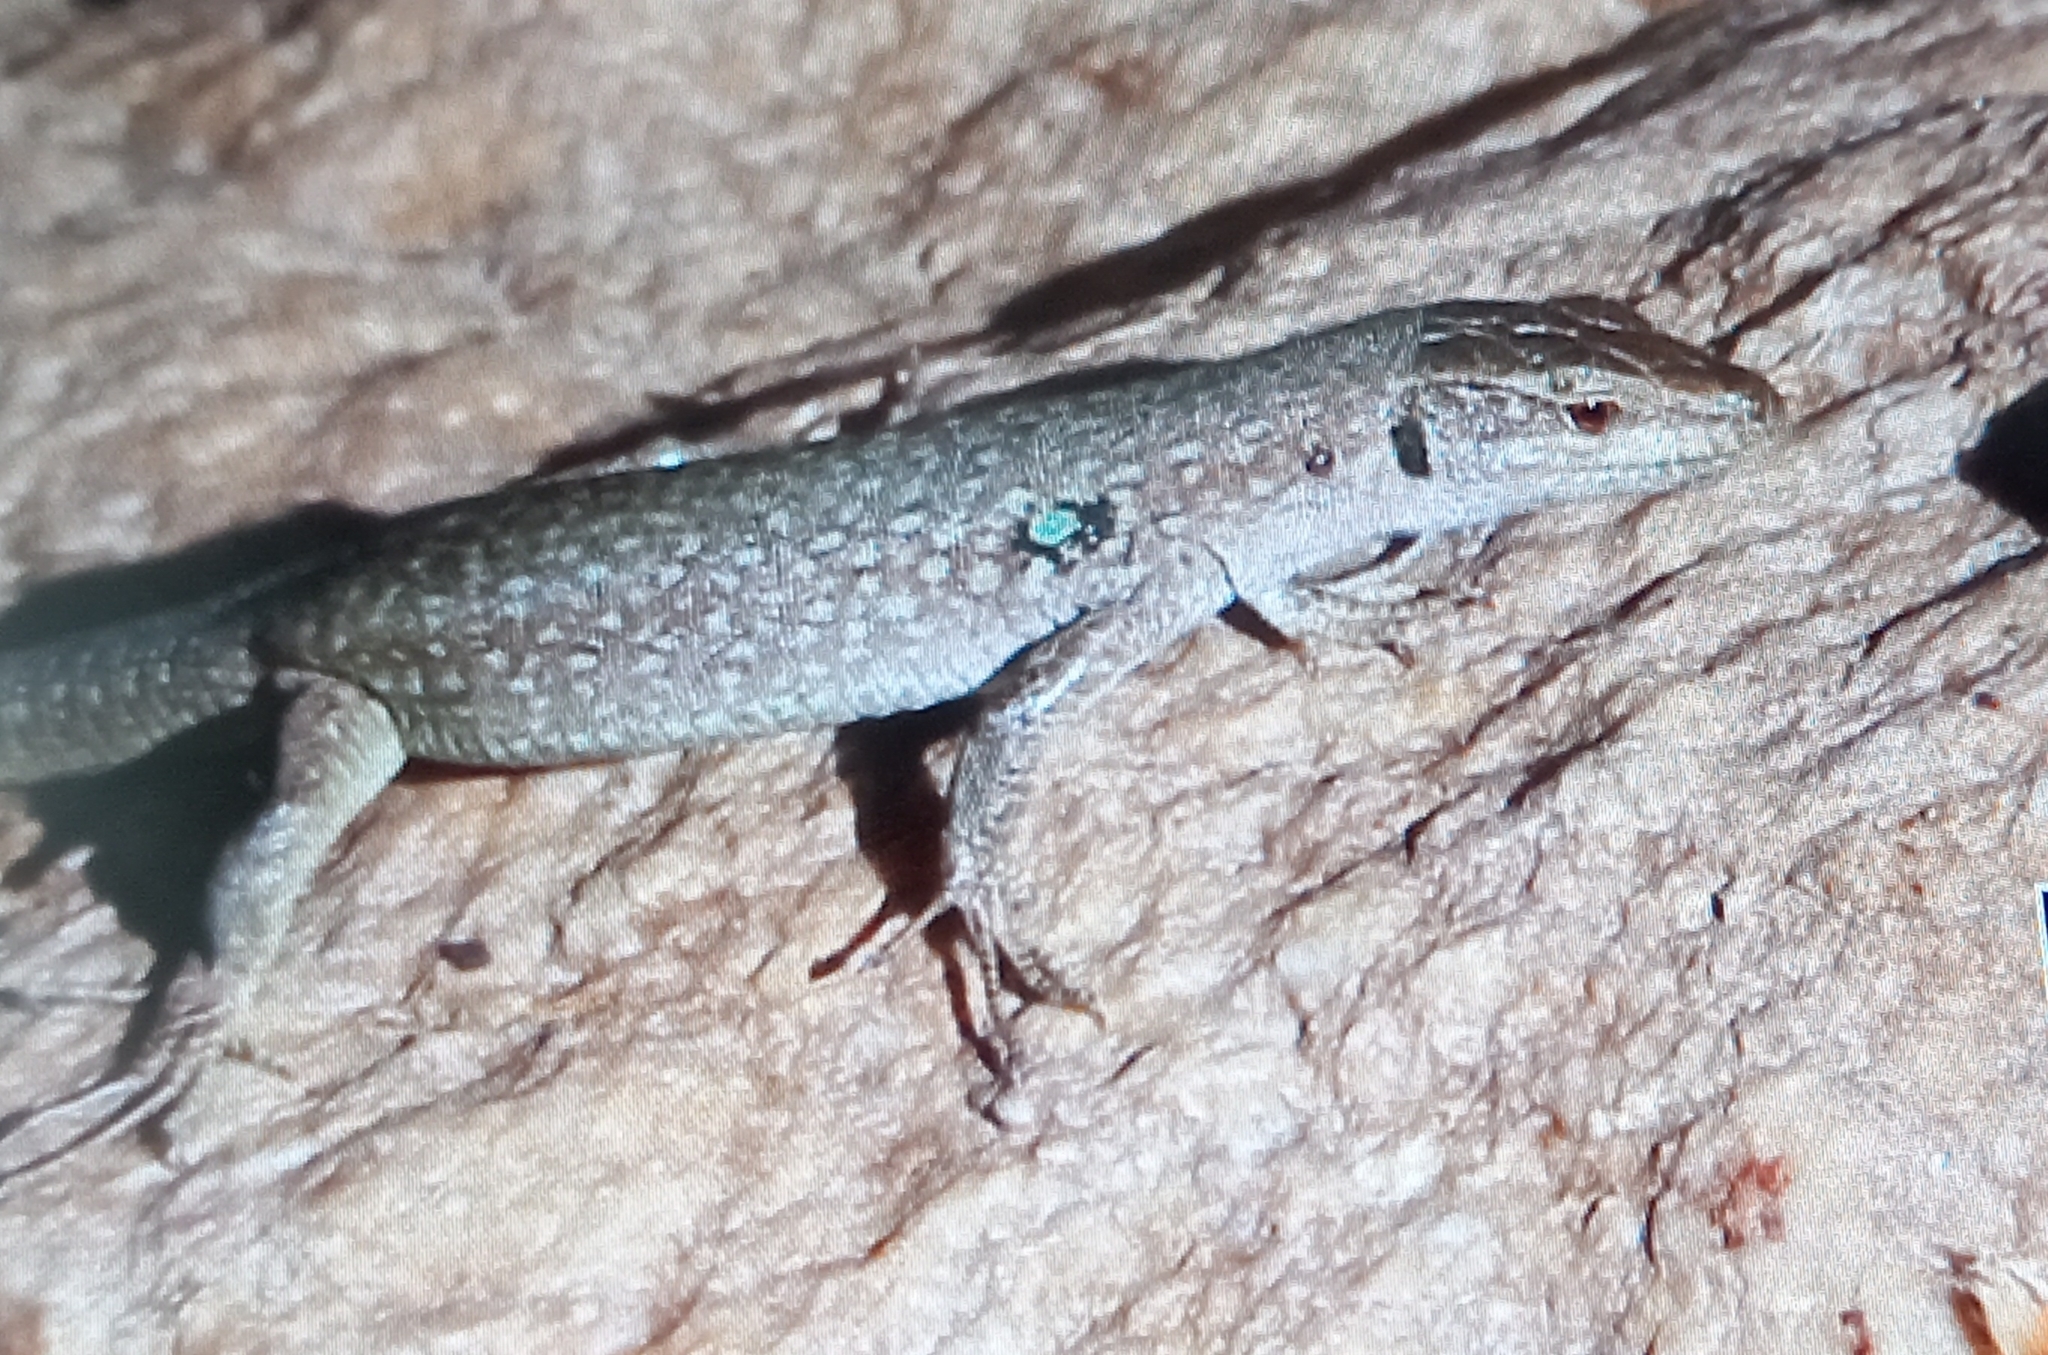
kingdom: Animalia
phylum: Chordata
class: Squamata
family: Lacertidae
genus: Podarcis
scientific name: Podarcis siculus
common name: Italian wall lizard
